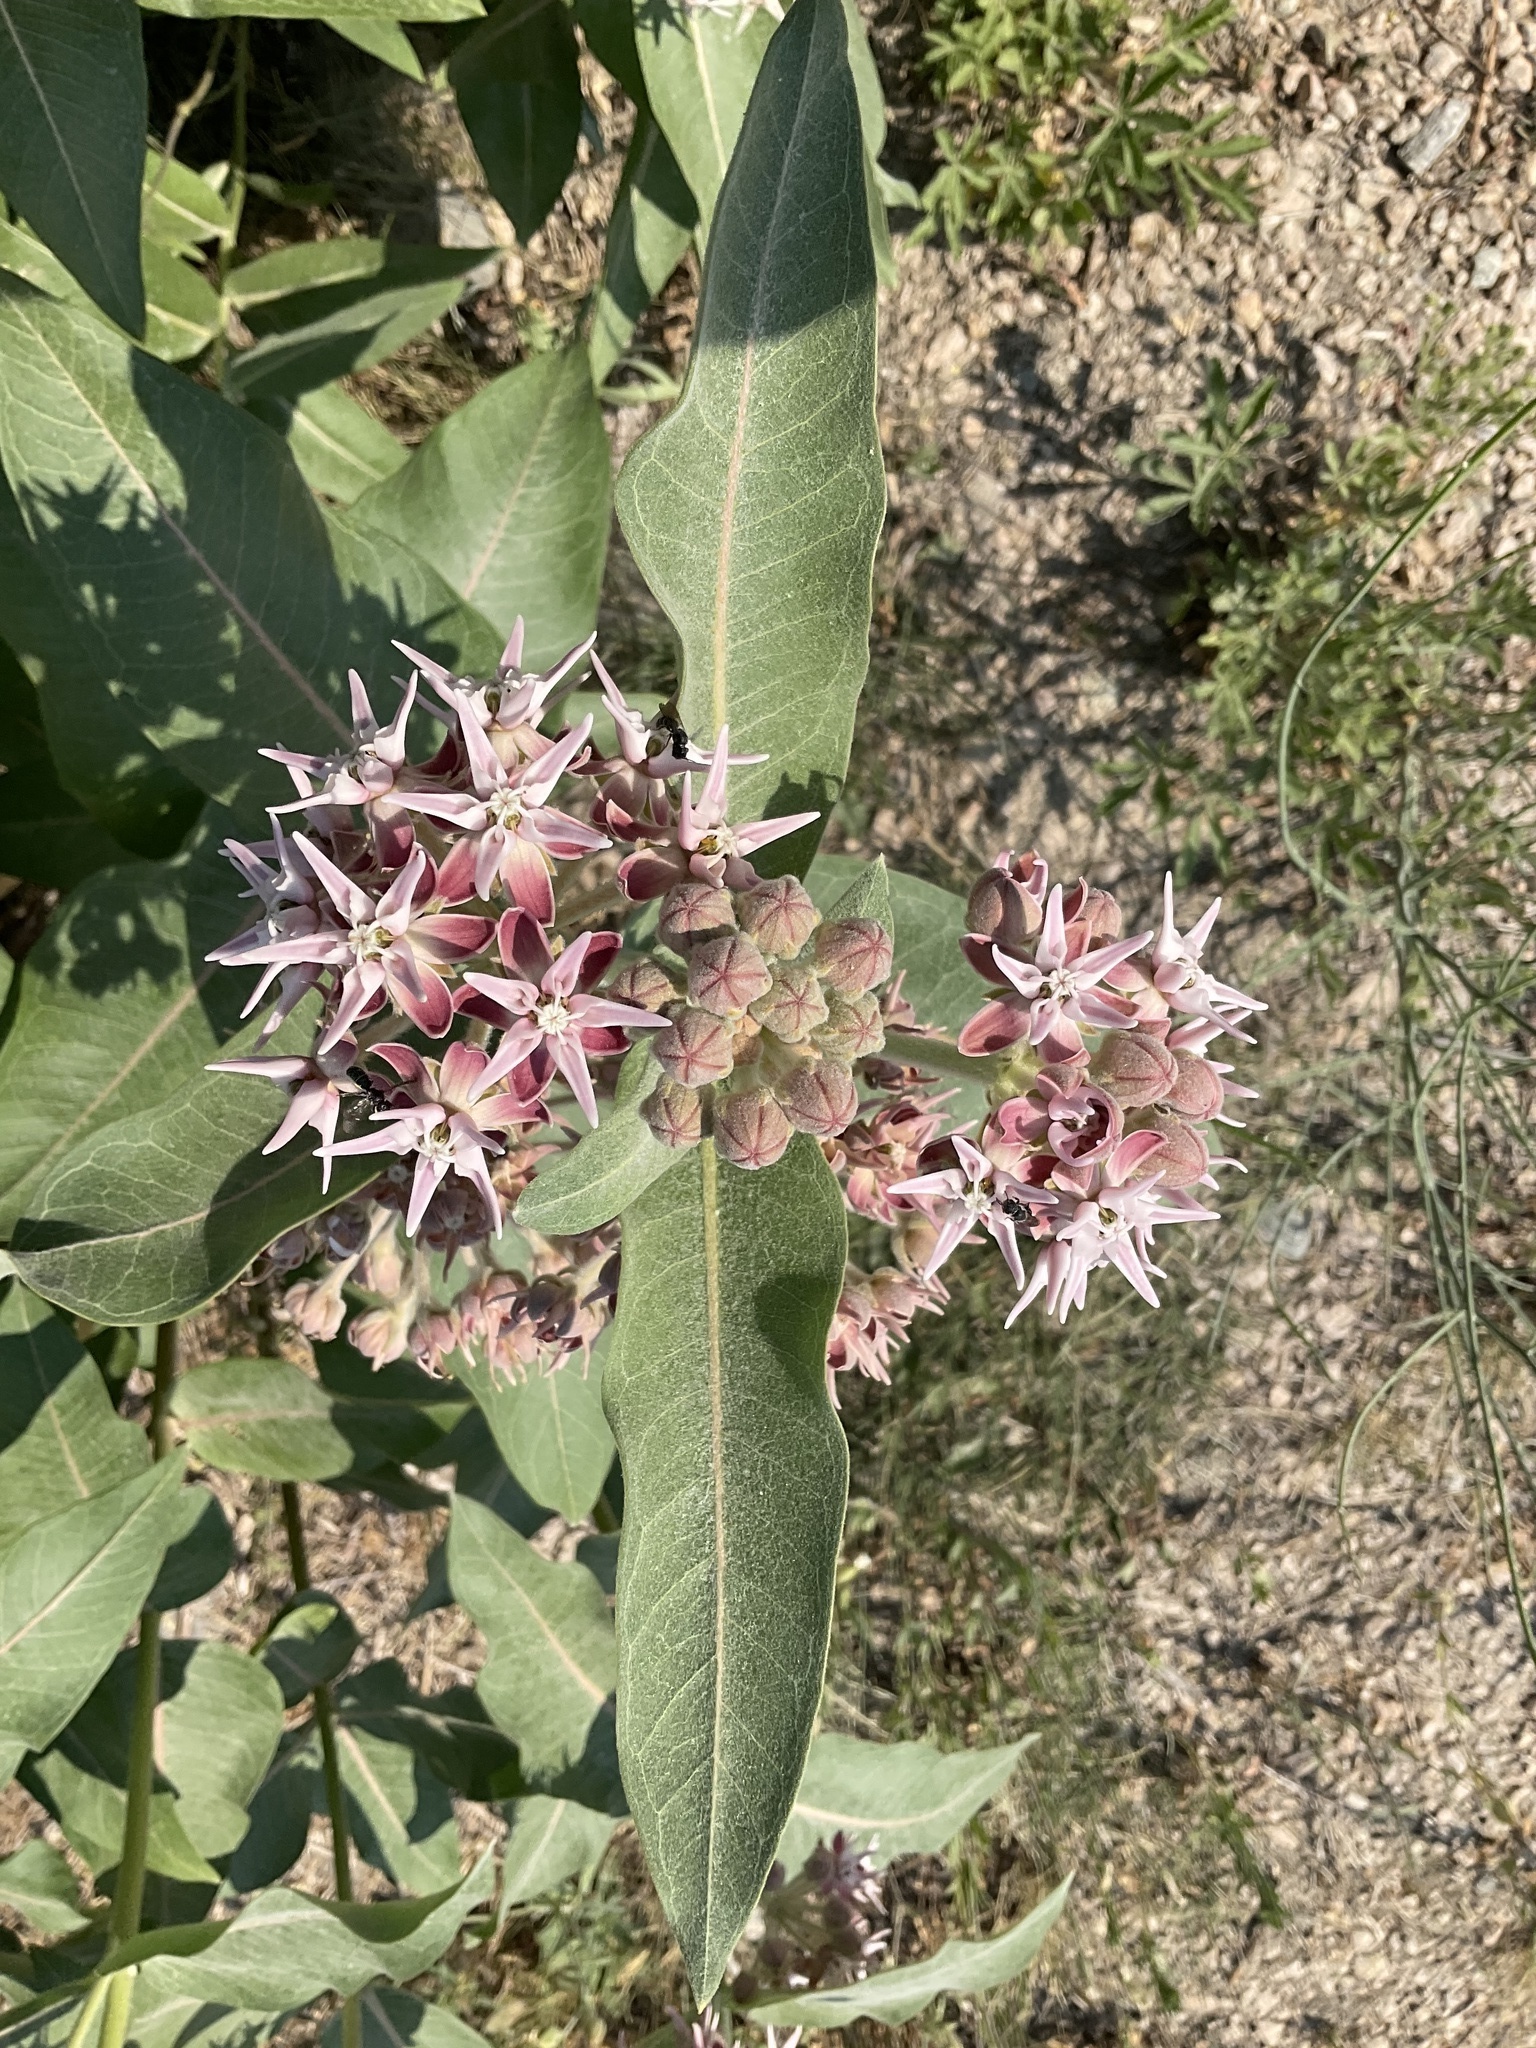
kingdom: Plantae
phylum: Tracheophyta
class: Magnoliopsida
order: Gentianales
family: Apocynaceae
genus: Asclepias
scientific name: Asclepias speciosa
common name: Showy milkweed
